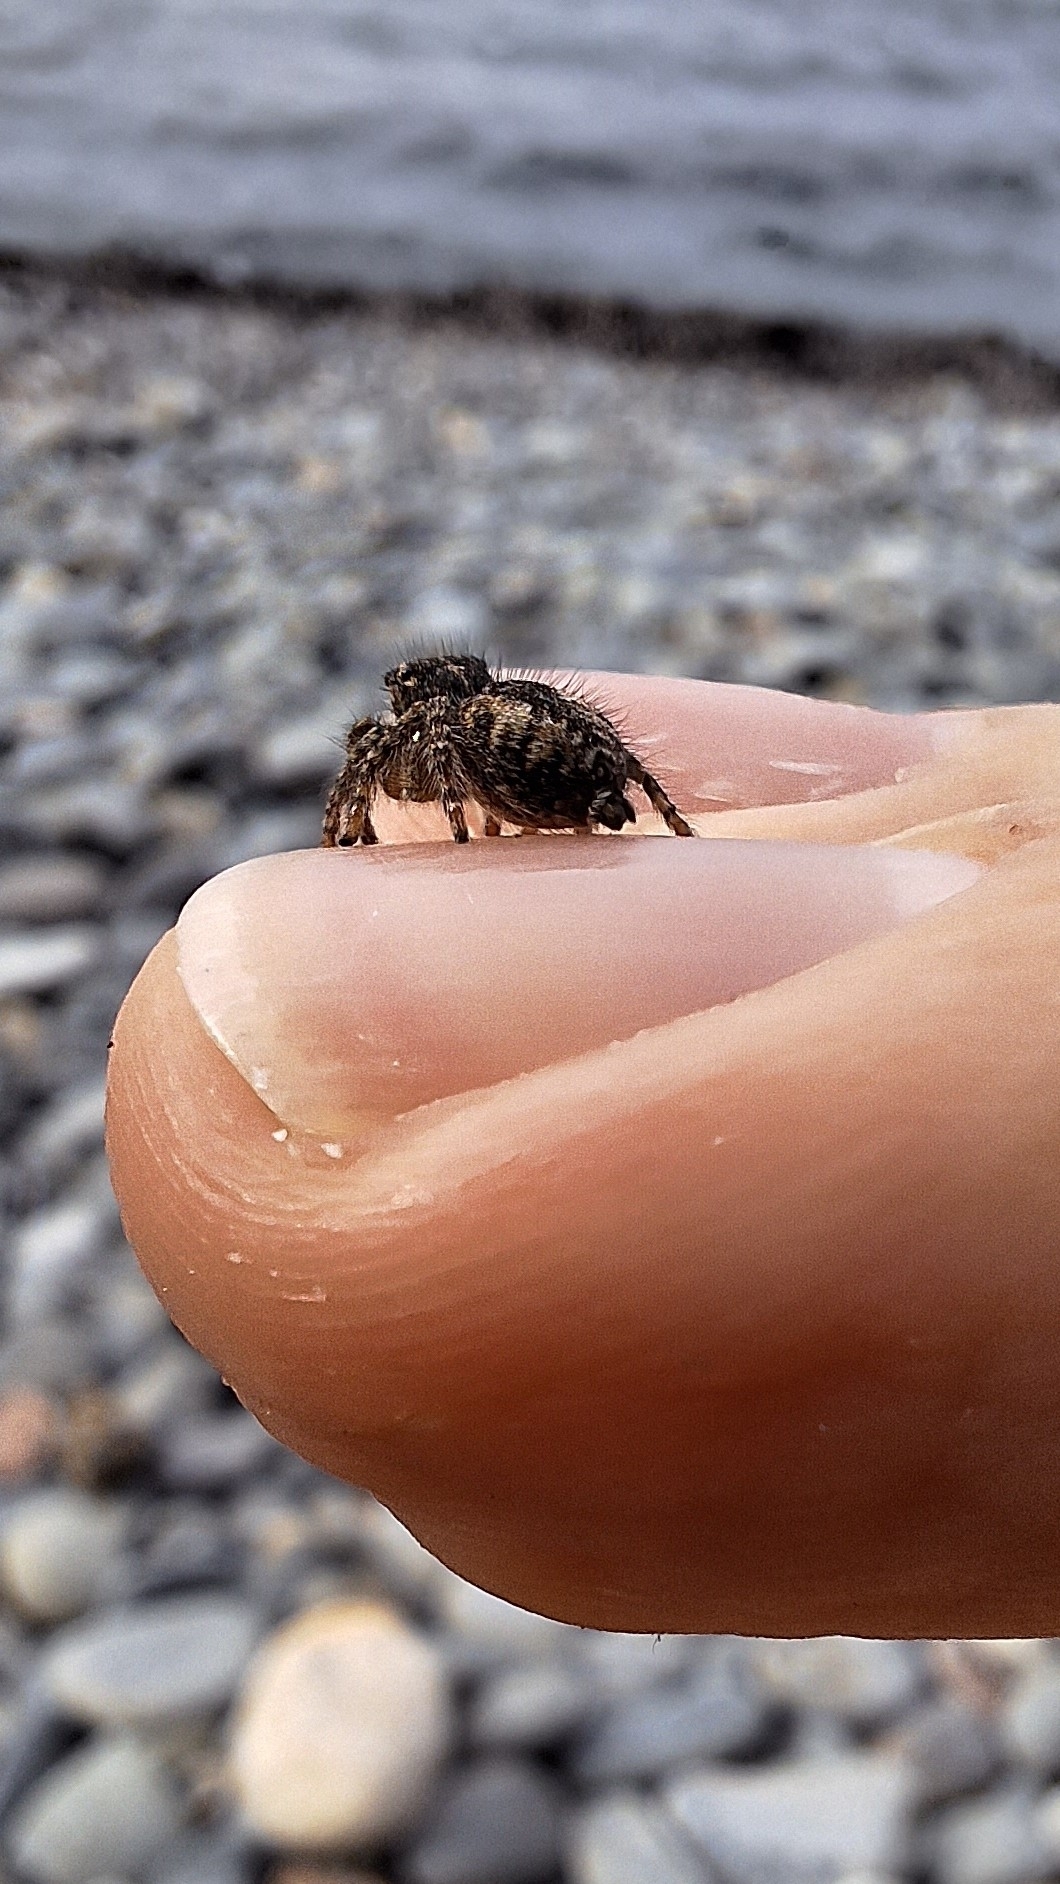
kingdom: Animalia
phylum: Arthropoda
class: Arachnida
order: Araneae
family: Salticidae
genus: Philaeus
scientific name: Philaeus chrysops
